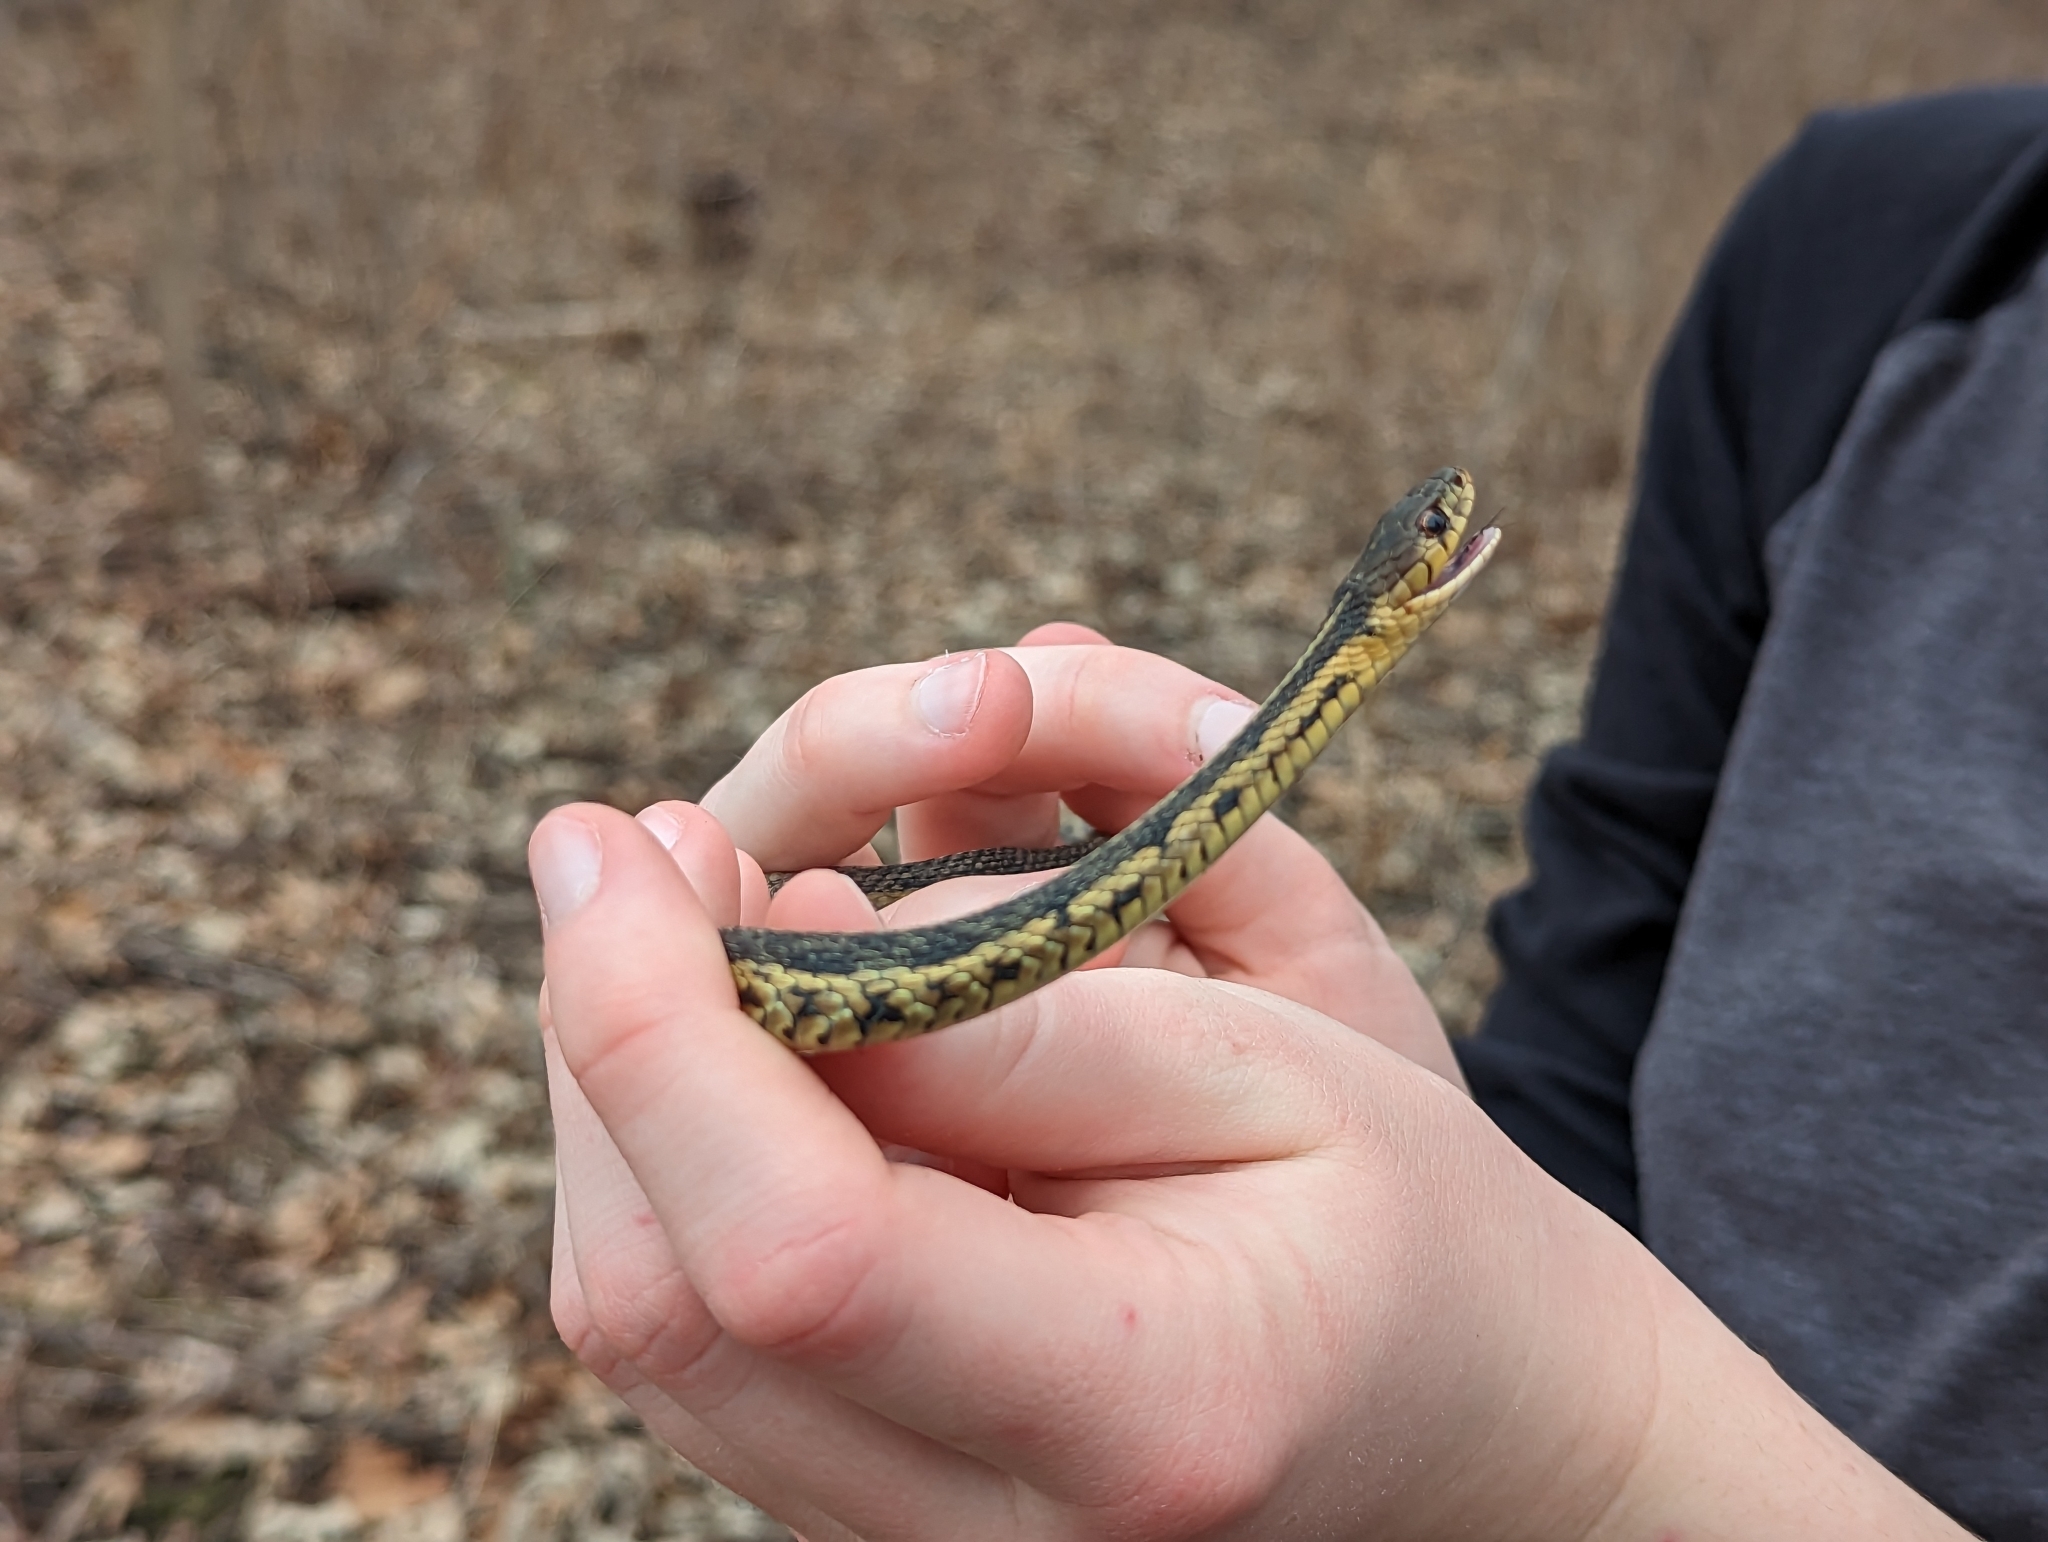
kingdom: Animalia
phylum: Chordata
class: Squamata
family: Colubridae
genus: Thamnophis
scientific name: Thamnophis sirtalis
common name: Common garter snake
